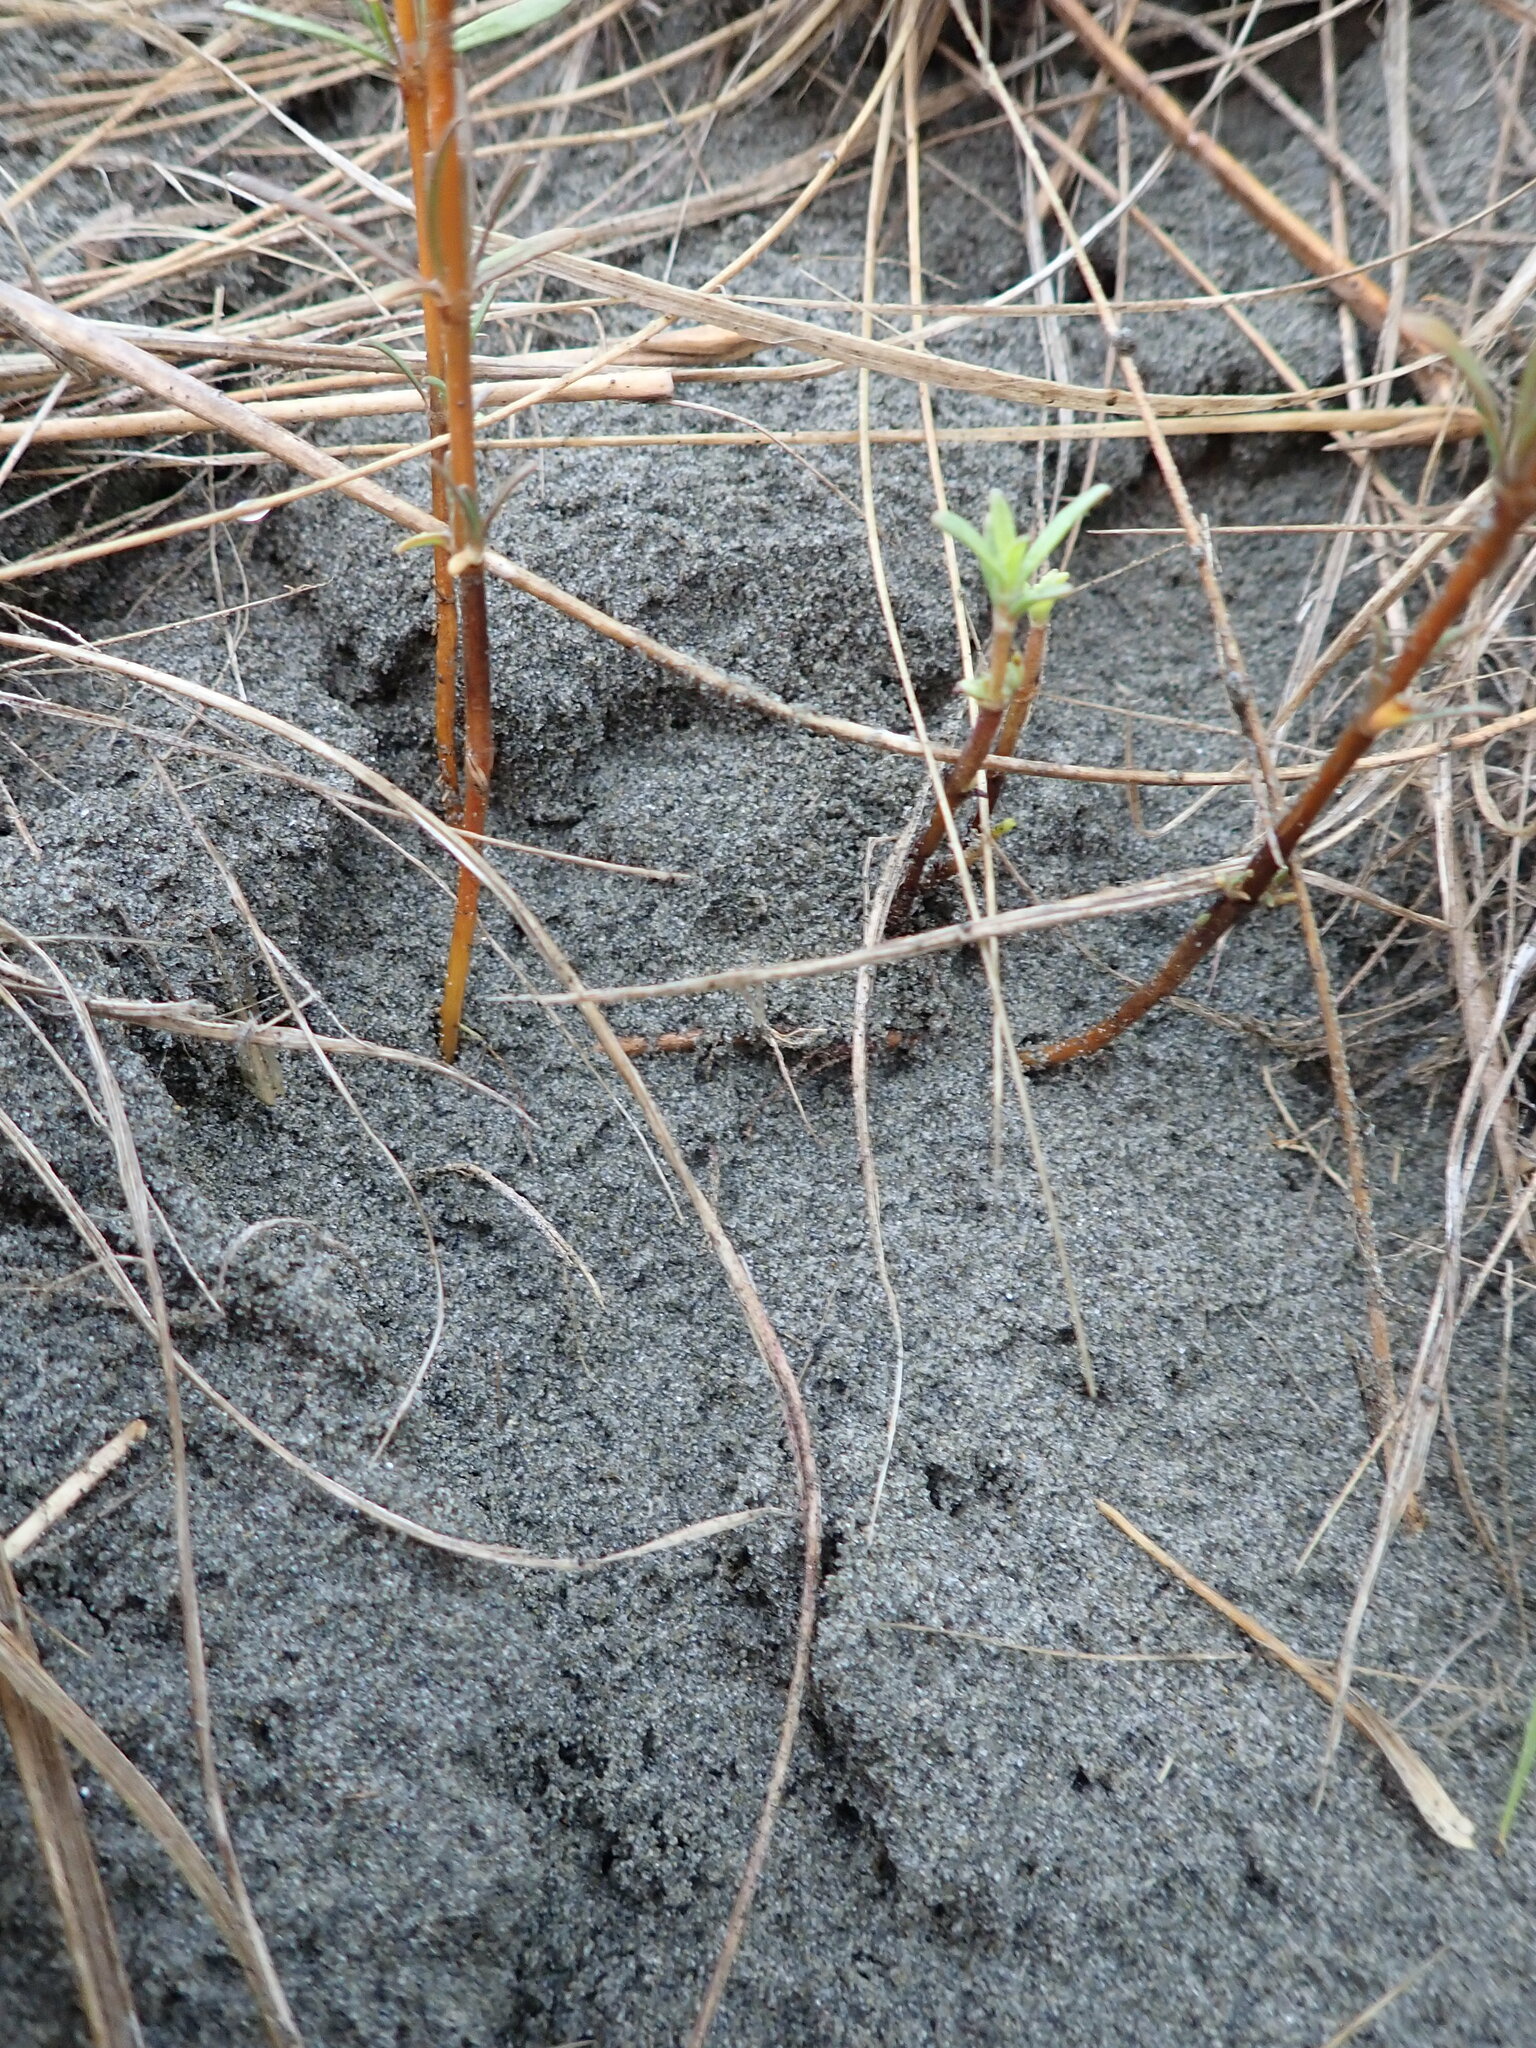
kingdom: Plantae
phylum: Tracheophyta
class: Magnoliopsida
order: Gentianales
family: Rubiaceae
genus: Coprosma
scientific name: Coprosma acerosa
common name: Sand coprosma
